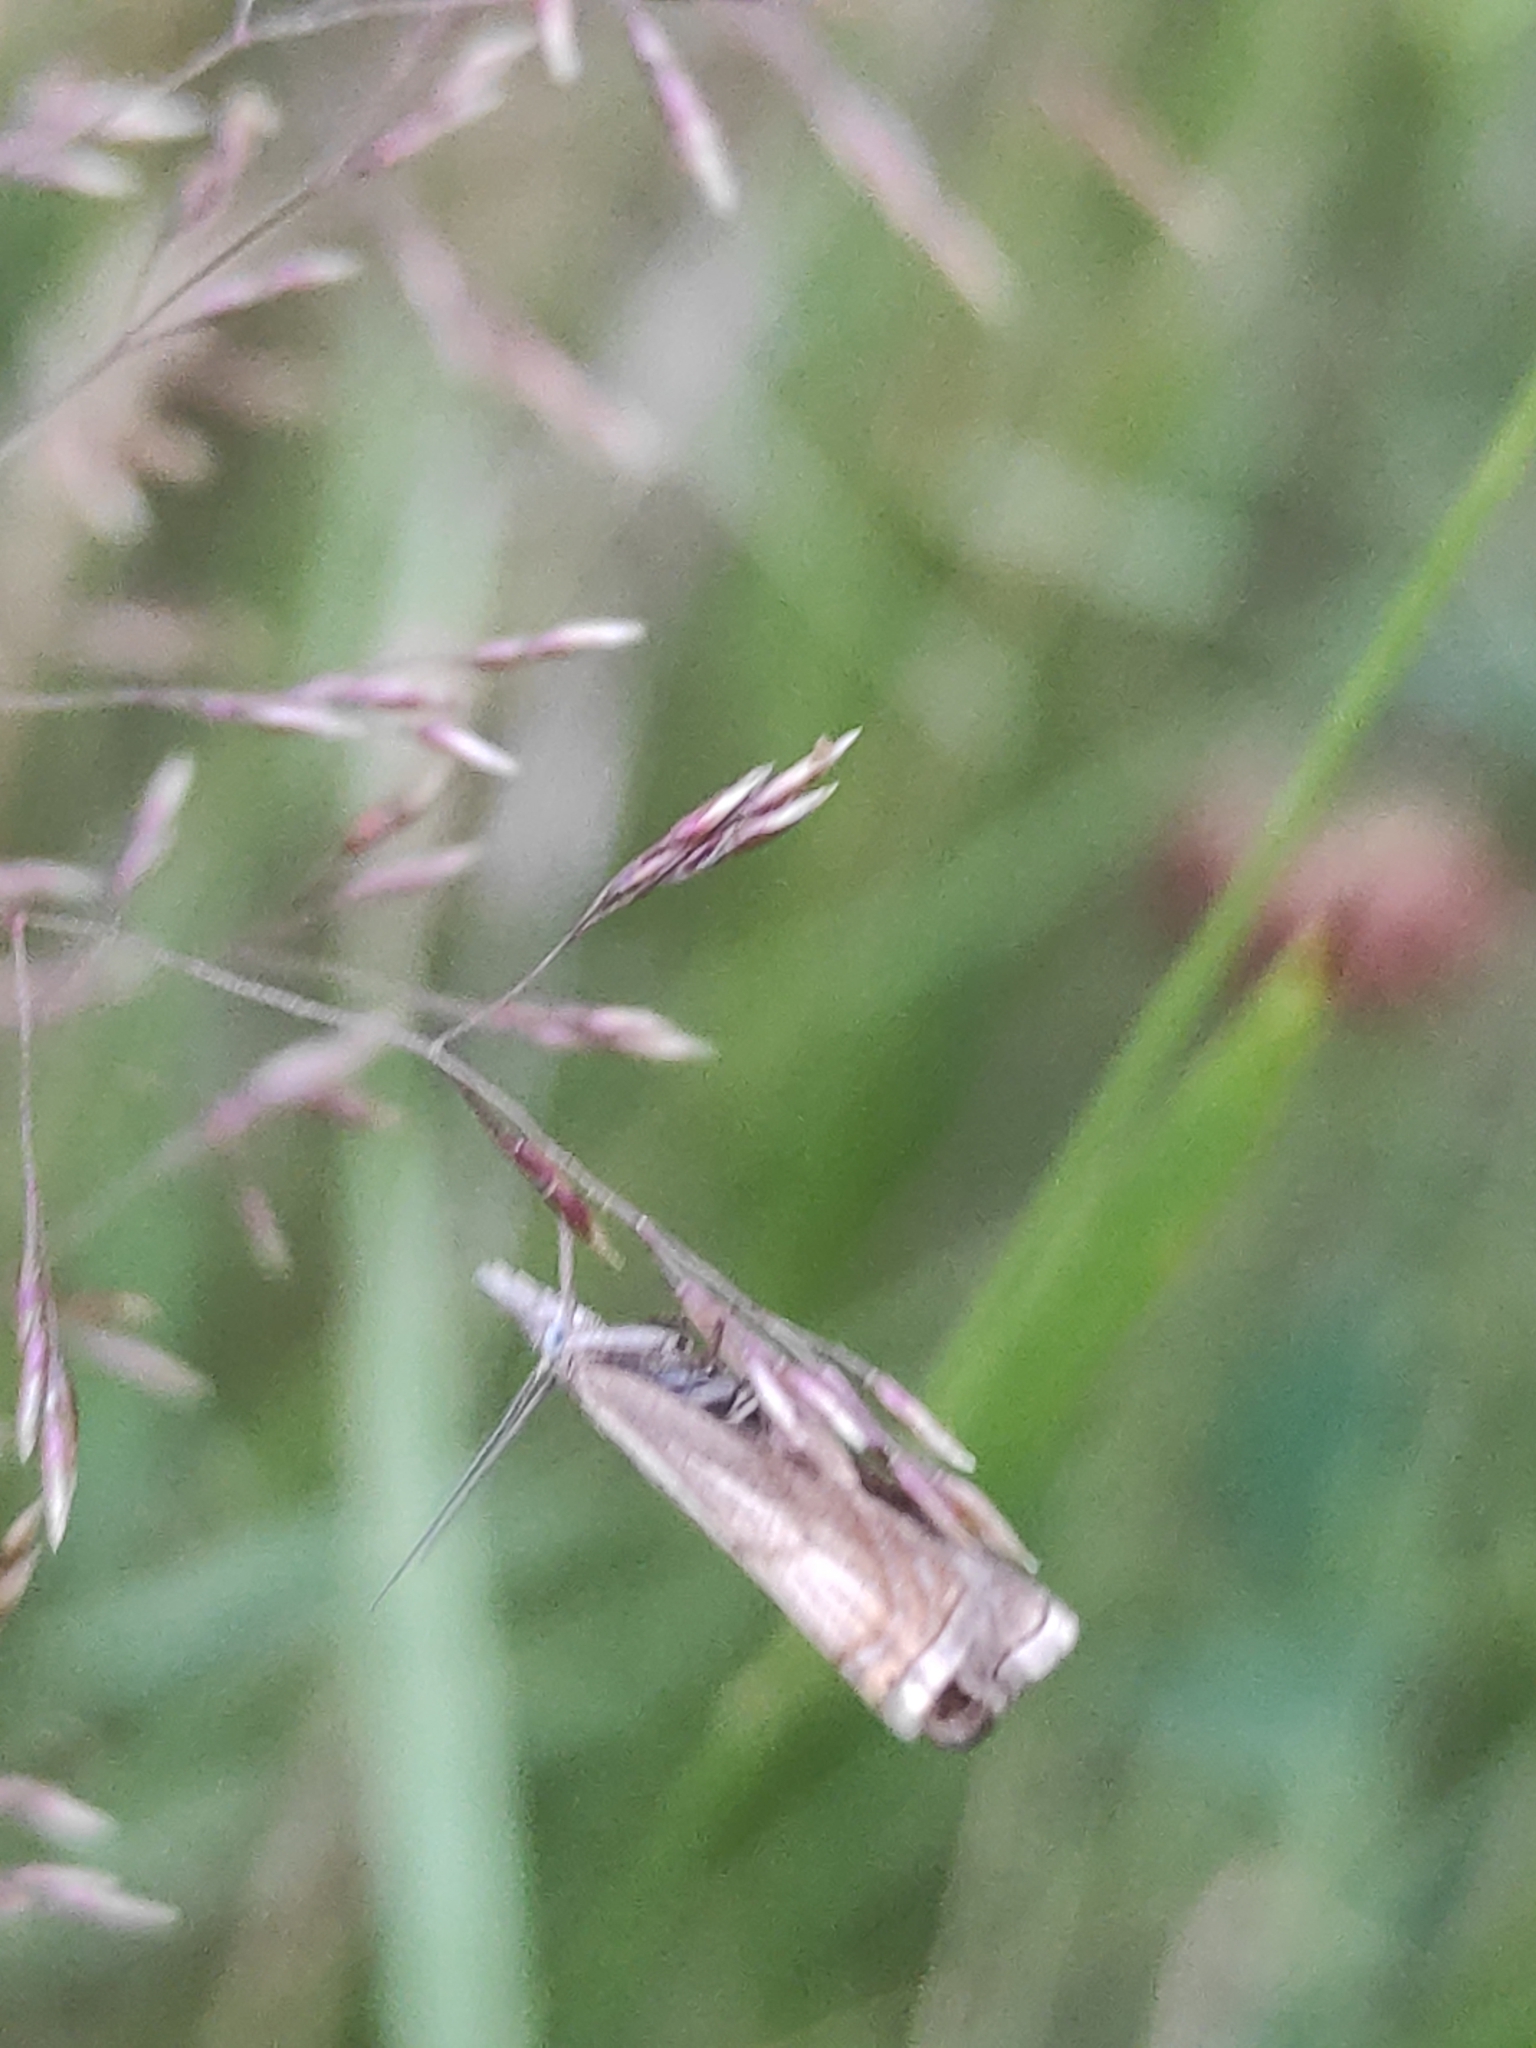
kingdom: Animalia
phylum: Arthropoda
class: Insecta
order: Lepidoptera
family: Crambidae
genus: Chrysoteuchia
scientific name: Chrysoteuchia culmella
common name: Garden grass-veneer
